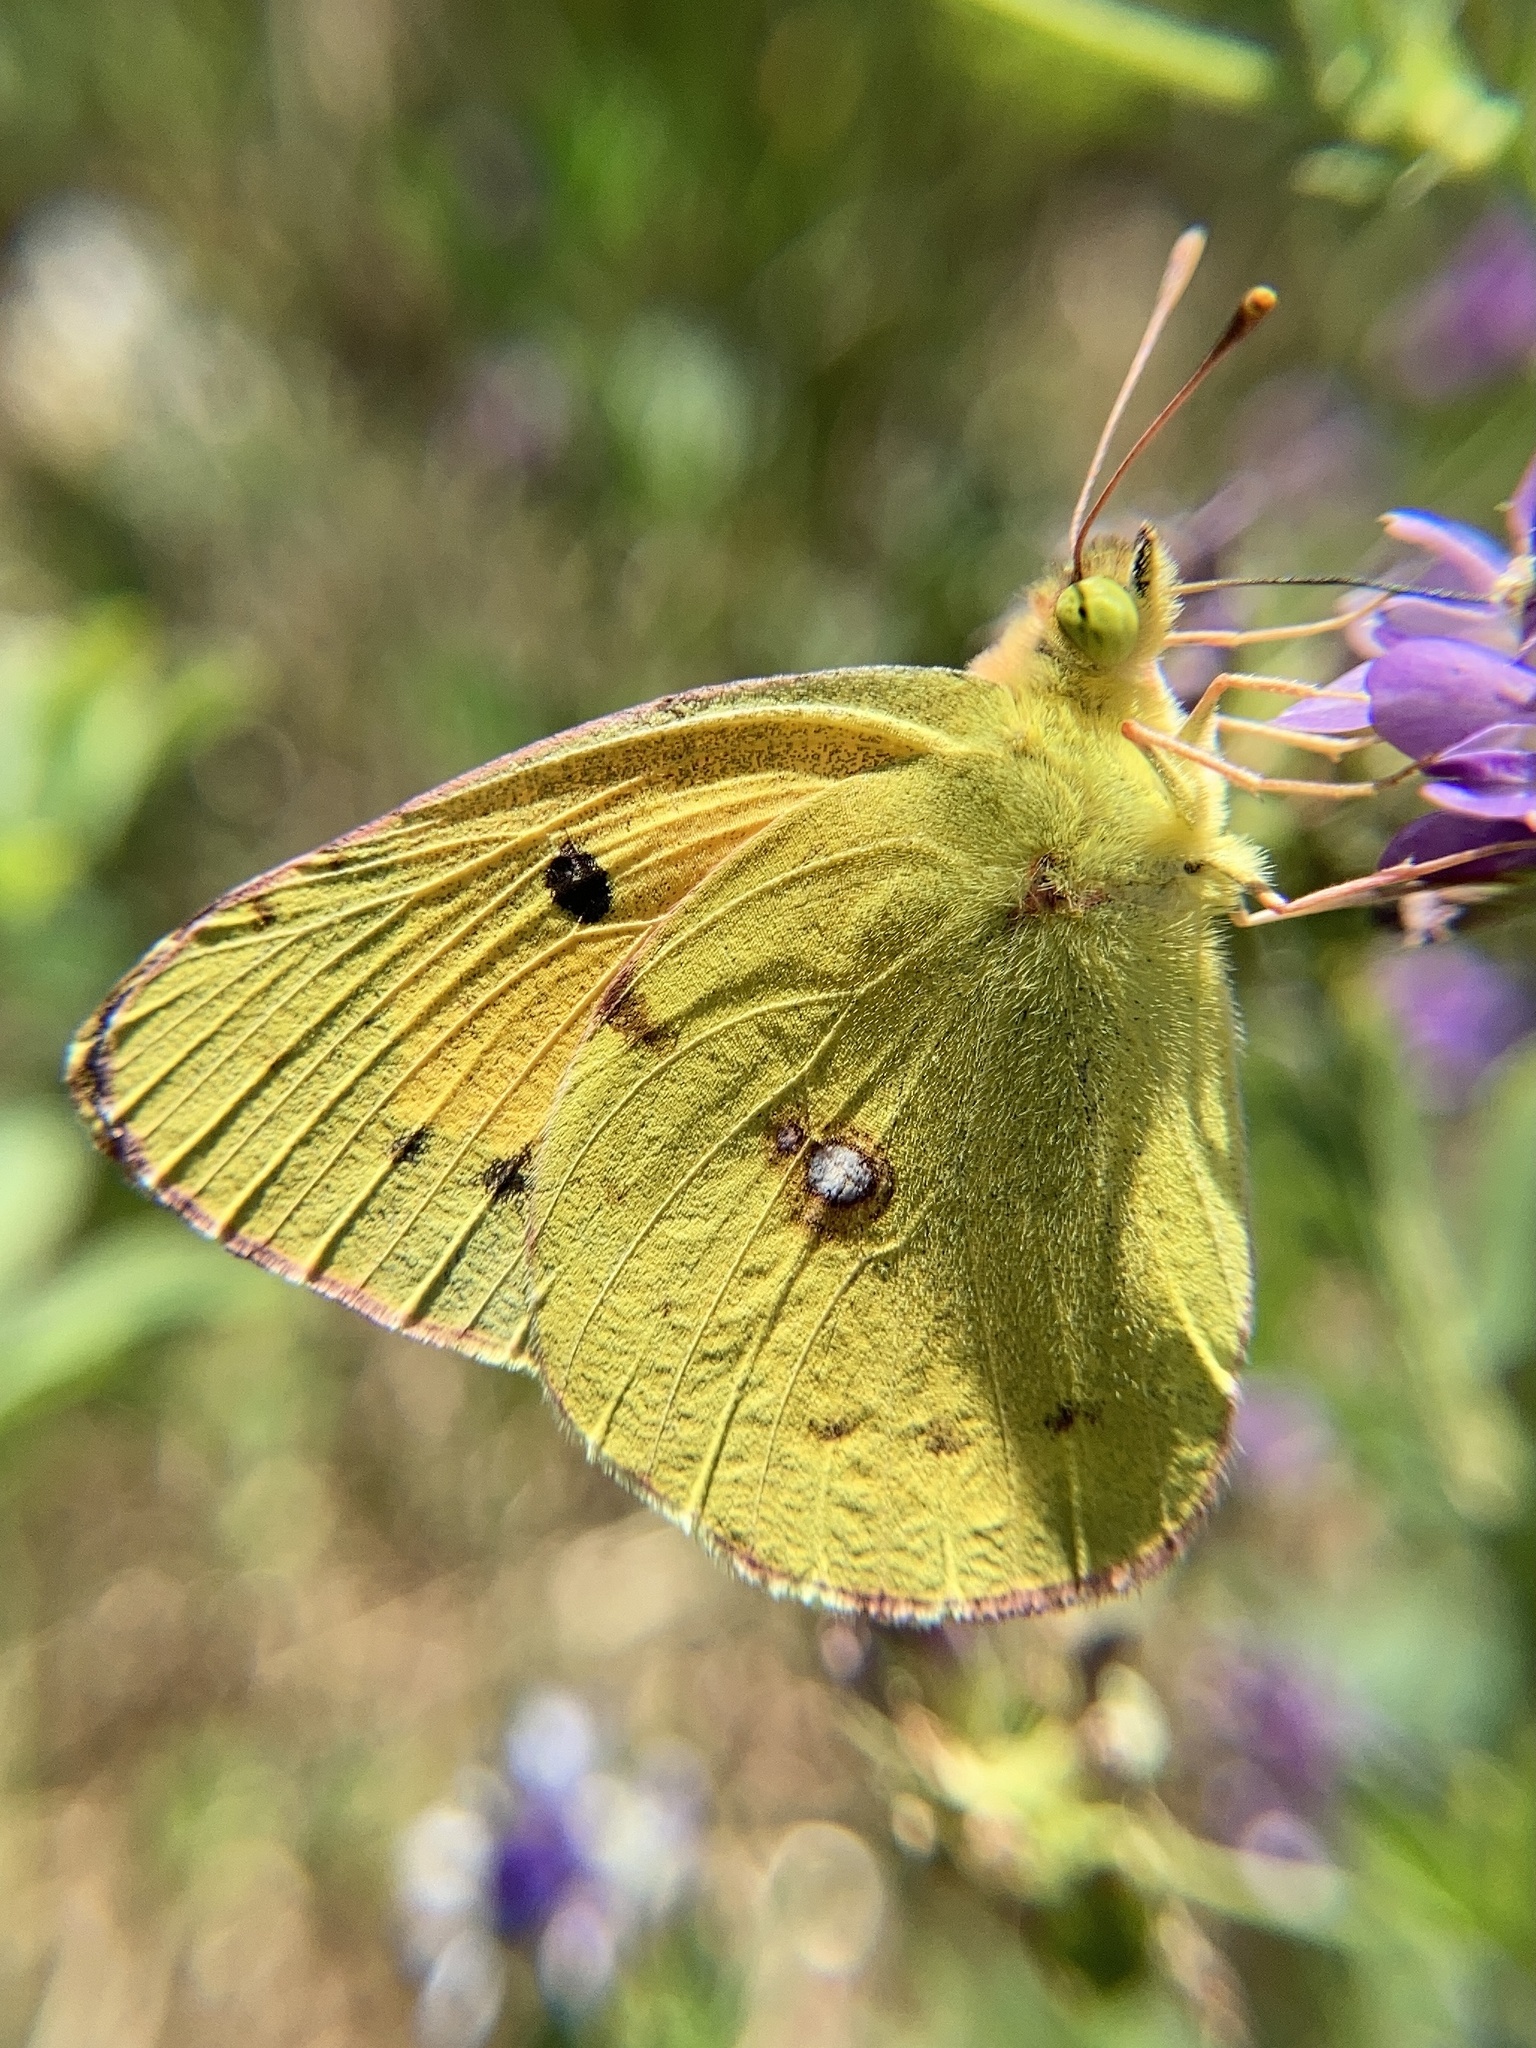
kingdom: Animalia
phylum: Arthropoda
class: Insecta
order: Lepidoptera
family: Pieridae
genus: Colias
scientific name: Colias croceus
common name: Clouded yellow
